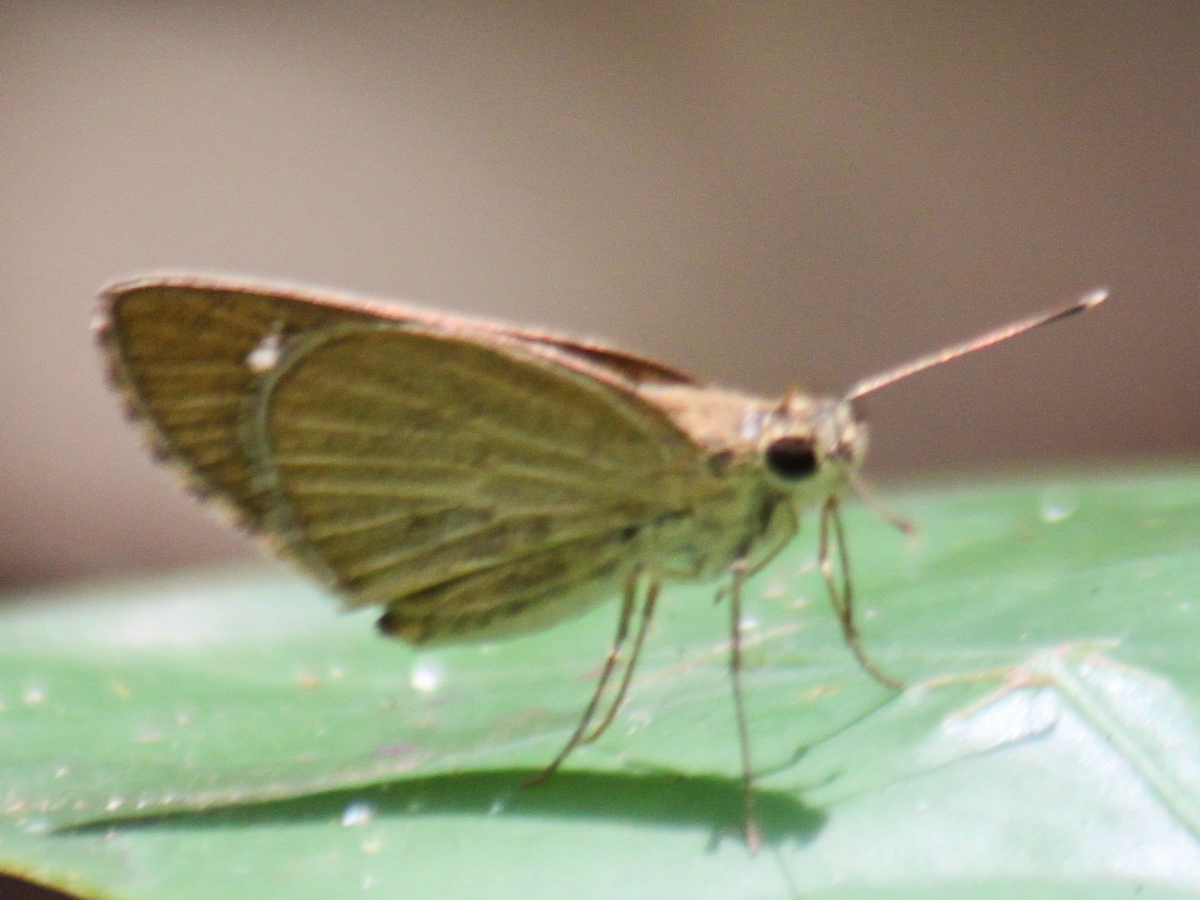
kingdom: Animalia
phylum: Arthropoda
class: Insecta
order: Lepidoptera
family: Hesperiidae
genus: Suada
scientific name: Suada swerga
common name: Grass bob
